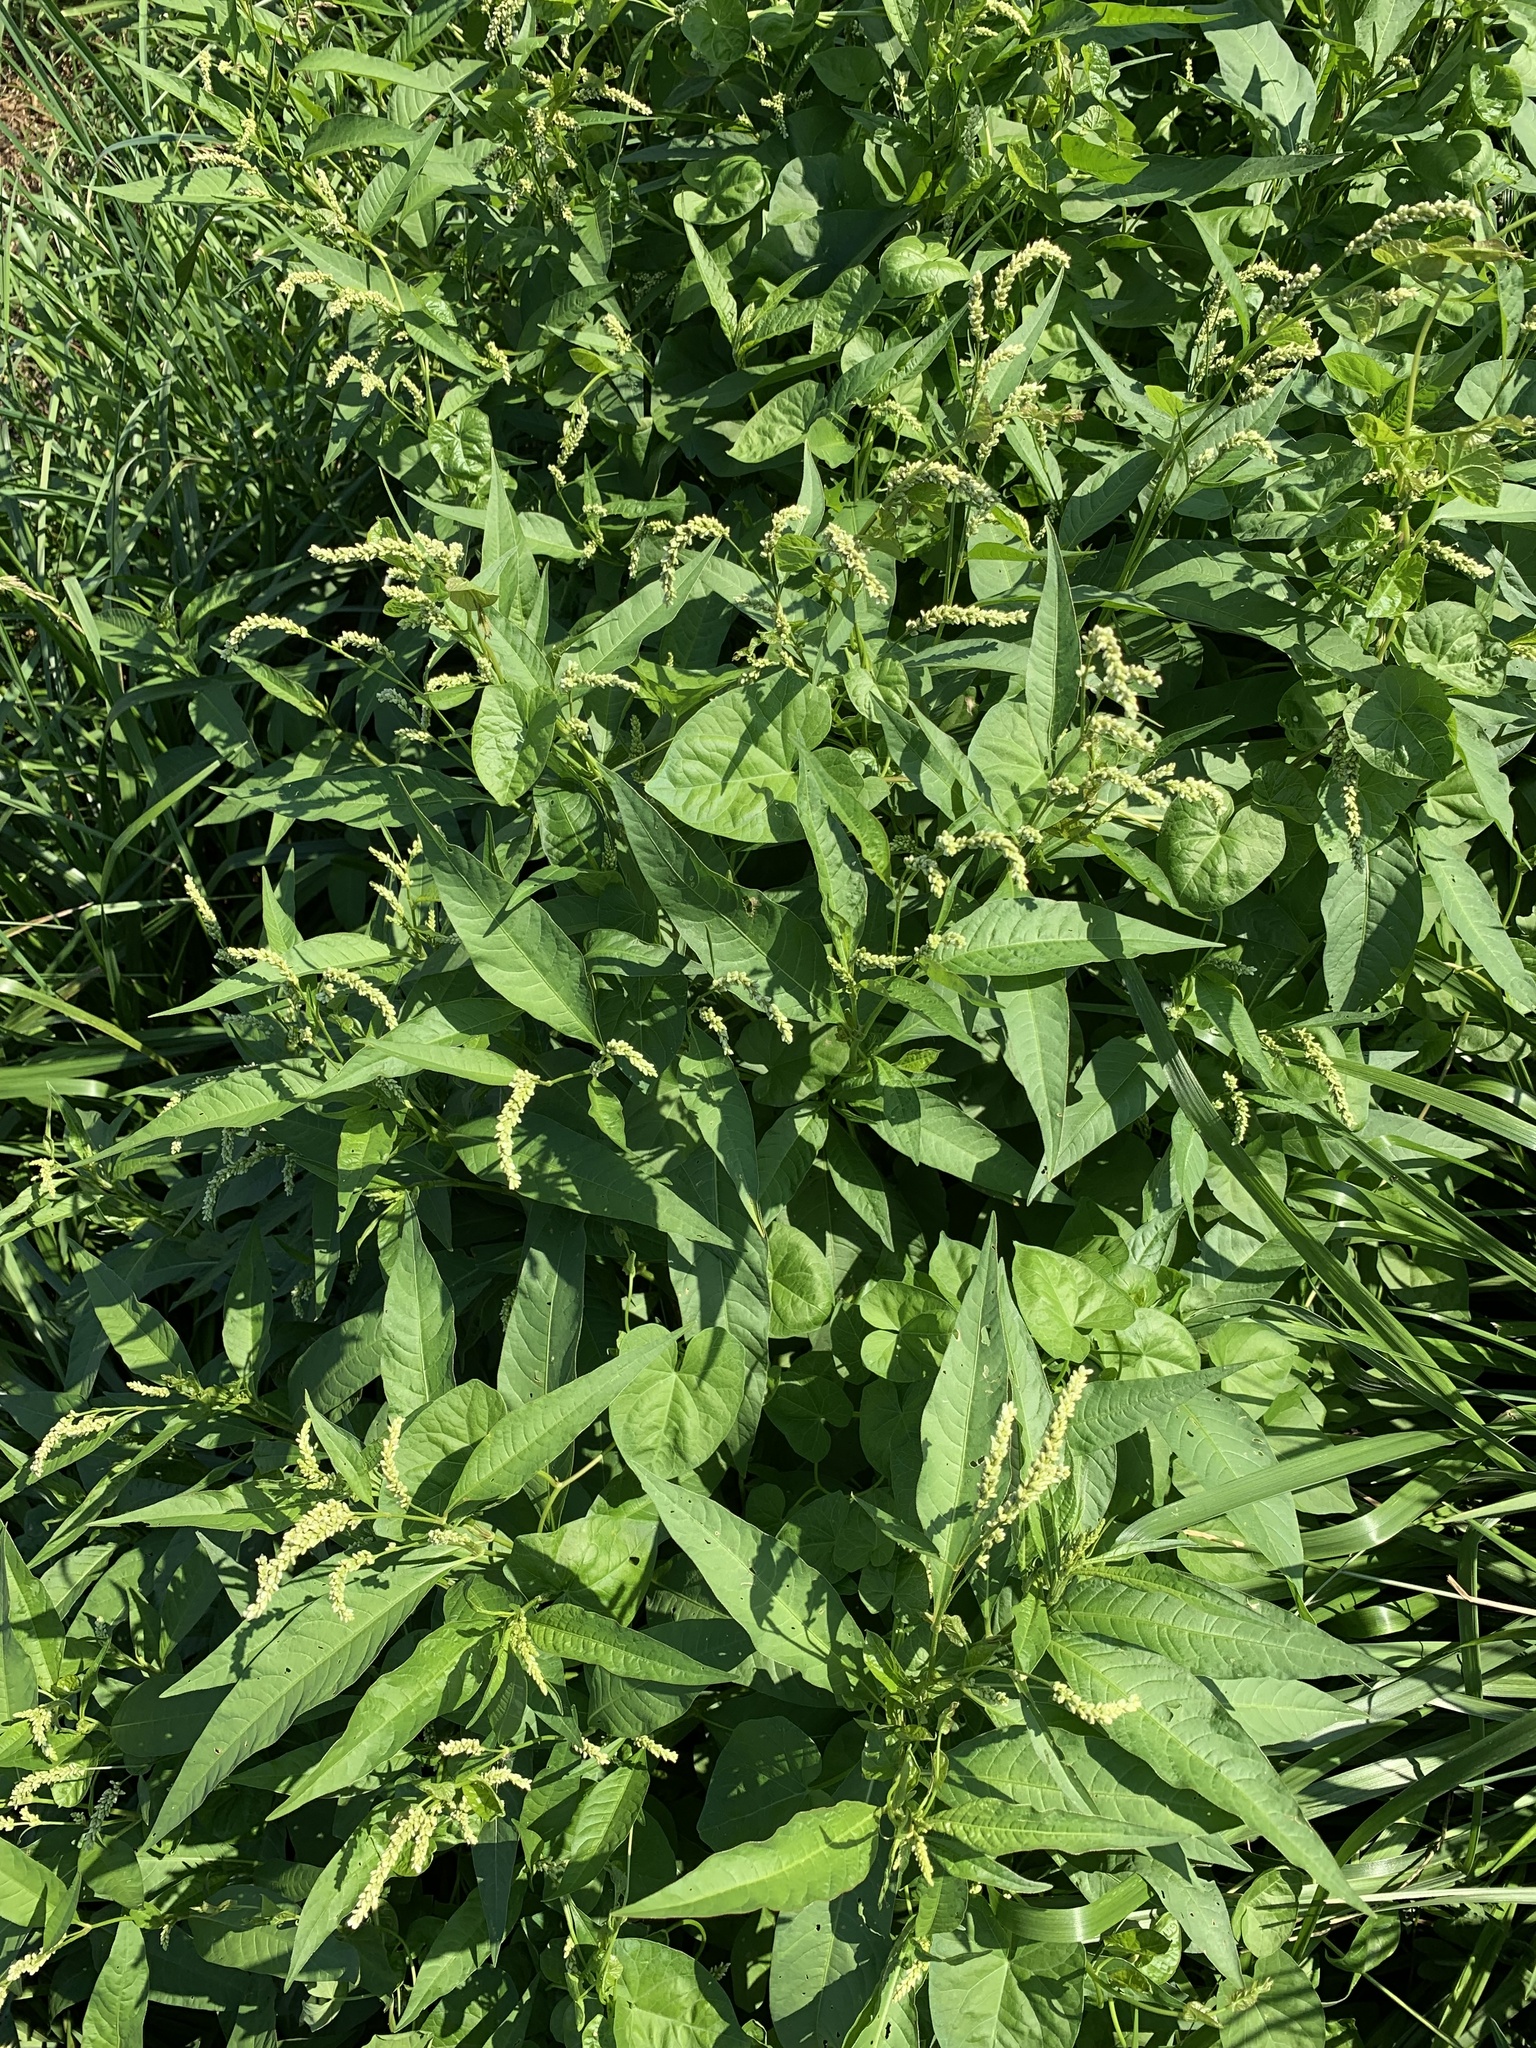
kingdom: Plantae
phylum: Tracheophyta
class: Magnoliopsida
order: Caryophyllales
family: Polygonaceae
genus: Persicaria
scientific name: Persicaria lapathifolia
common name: Curlytop knotweed
